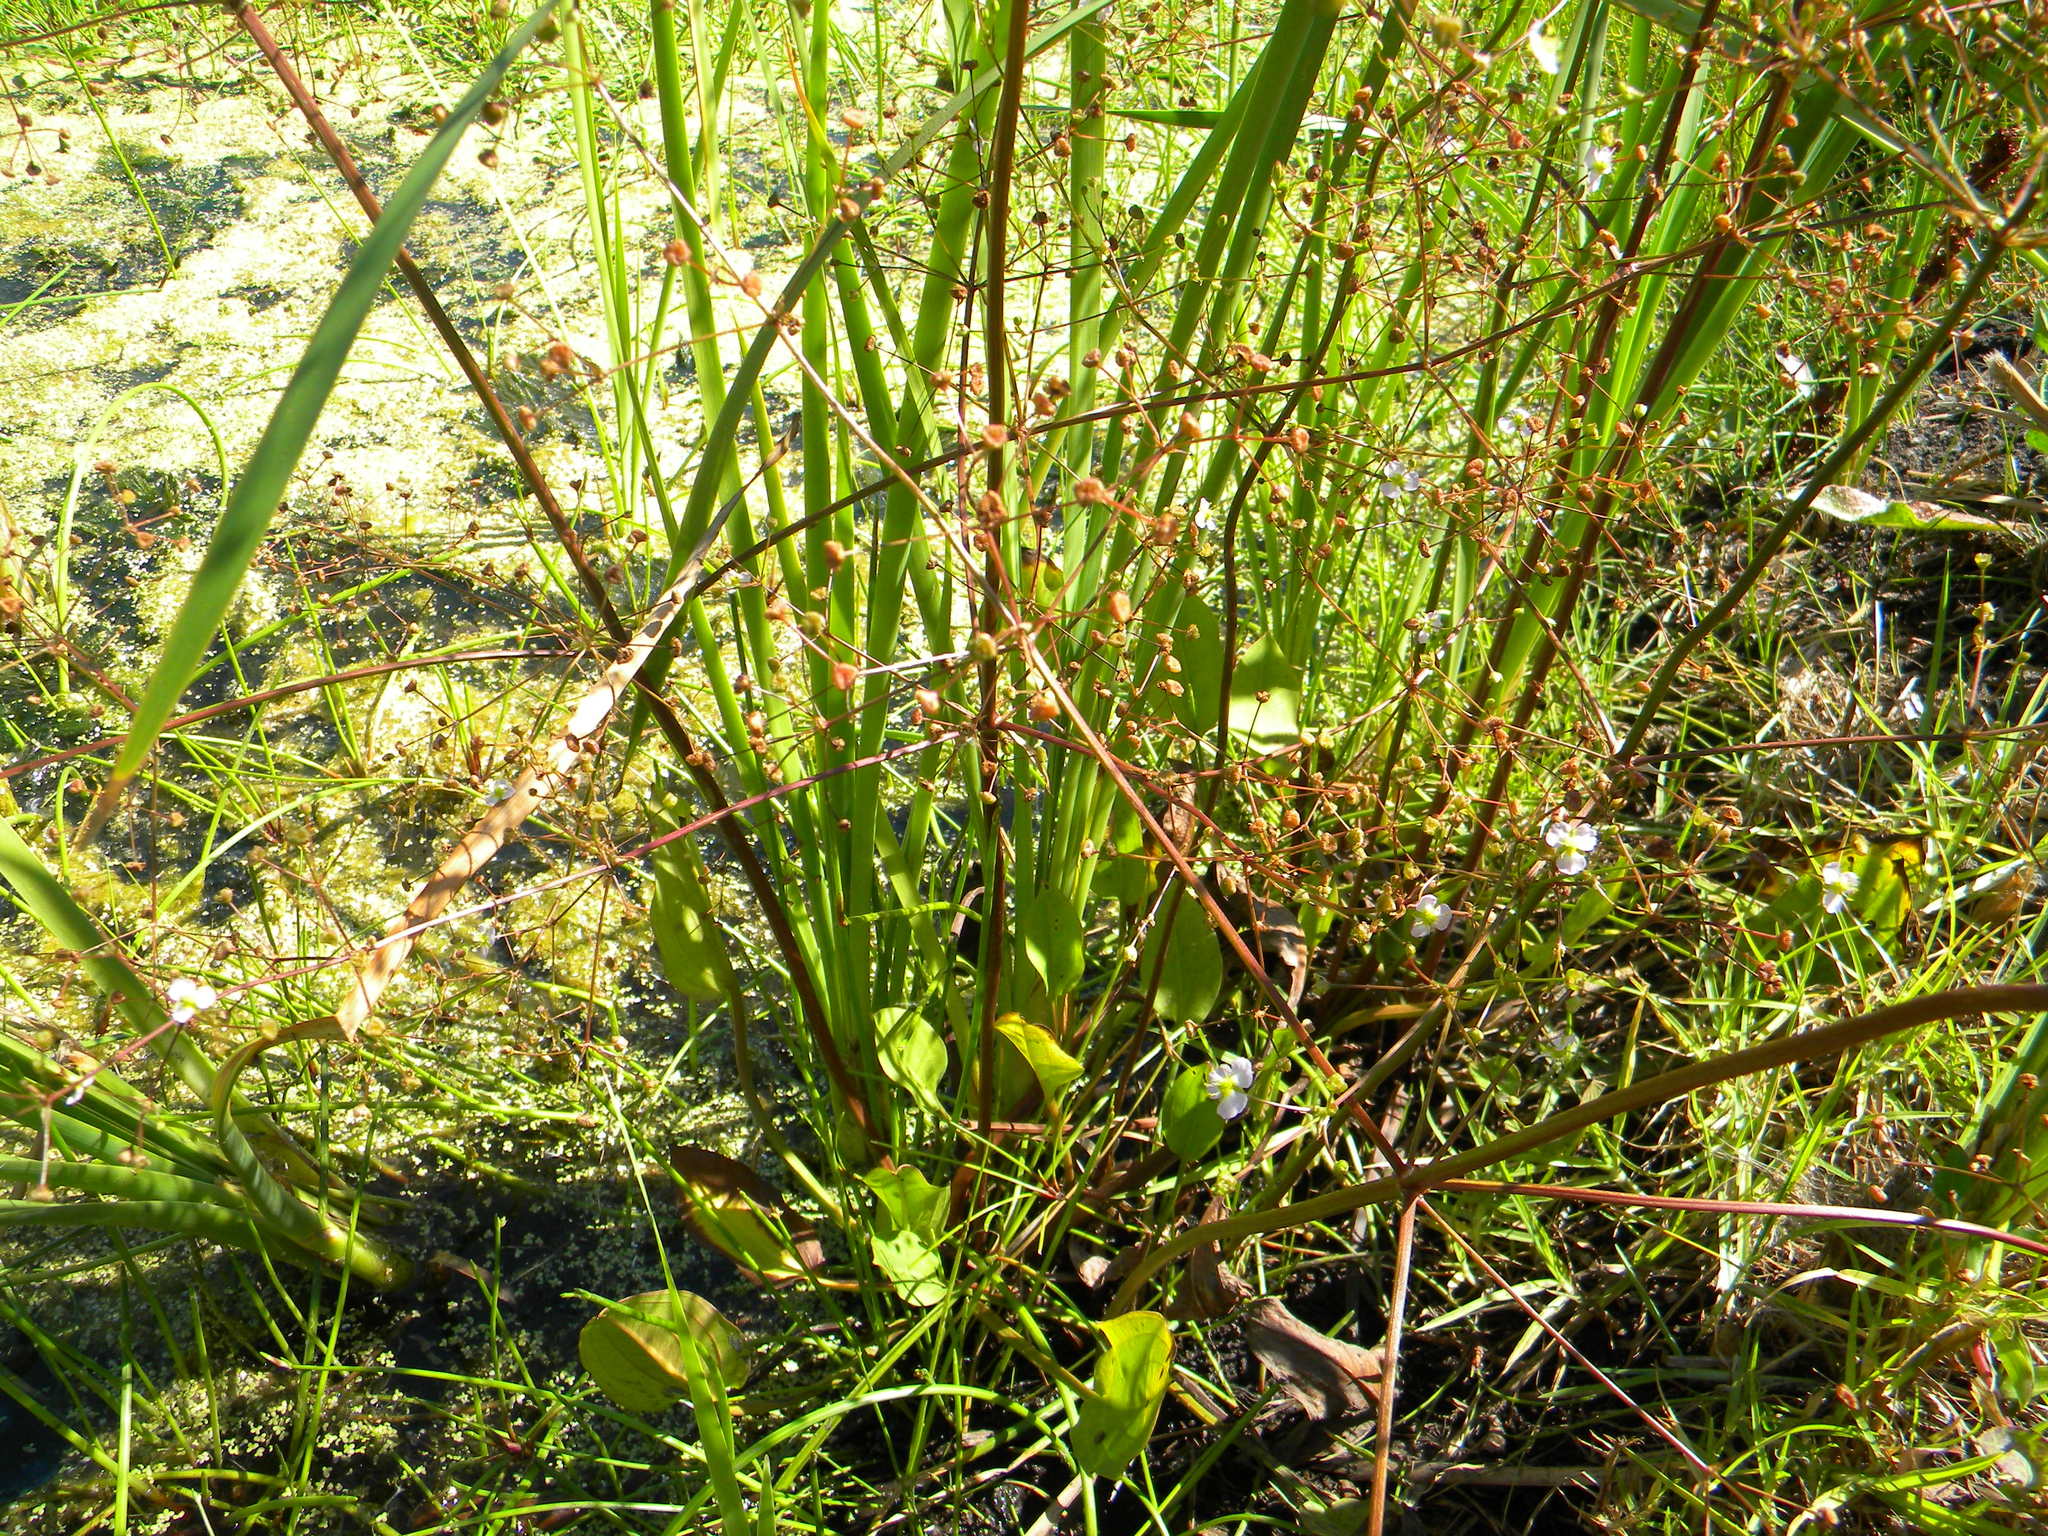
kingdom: Plantae
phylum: Tracheophyta
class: Liliopsida
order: Alismatales
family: Alismataceae
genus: Alisma
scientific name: Alisma plantago-aquatica
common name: Water-plantain
